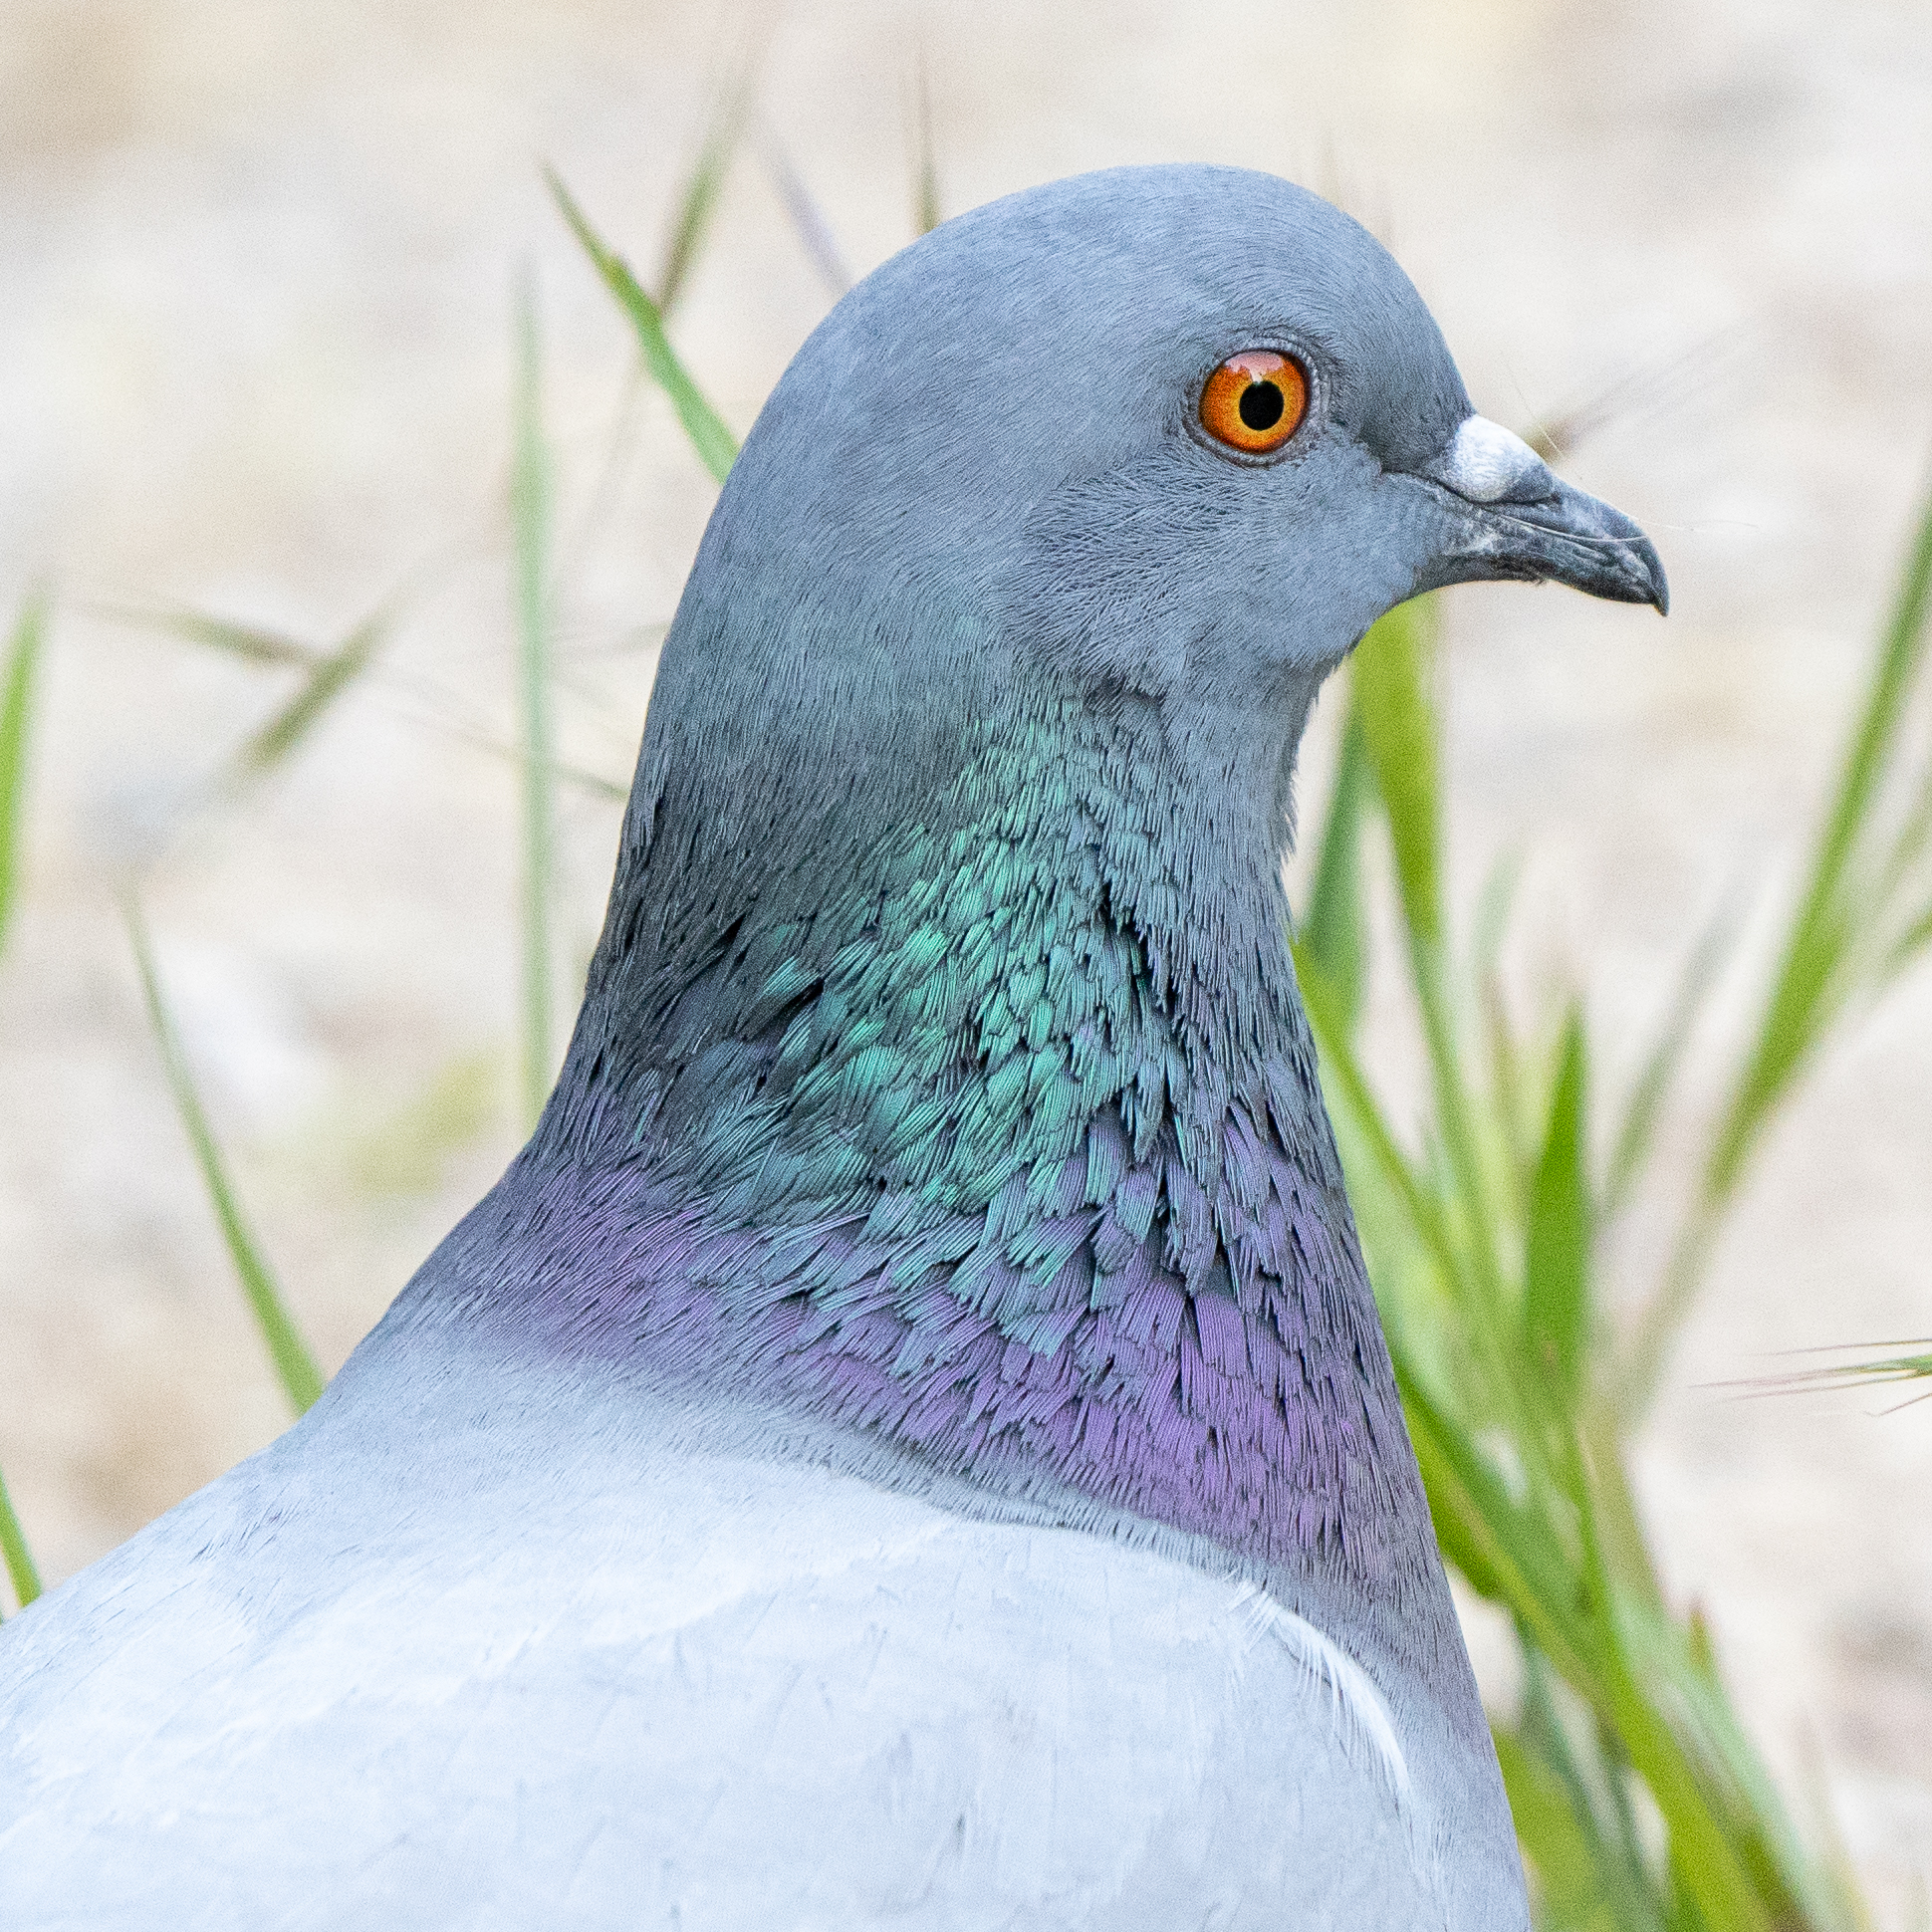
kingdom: Animalia
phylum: Chordata
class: Aves
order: Columbiformes
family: Columbidae
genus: Columba
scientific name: Columba livia
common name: Rock pigeon
